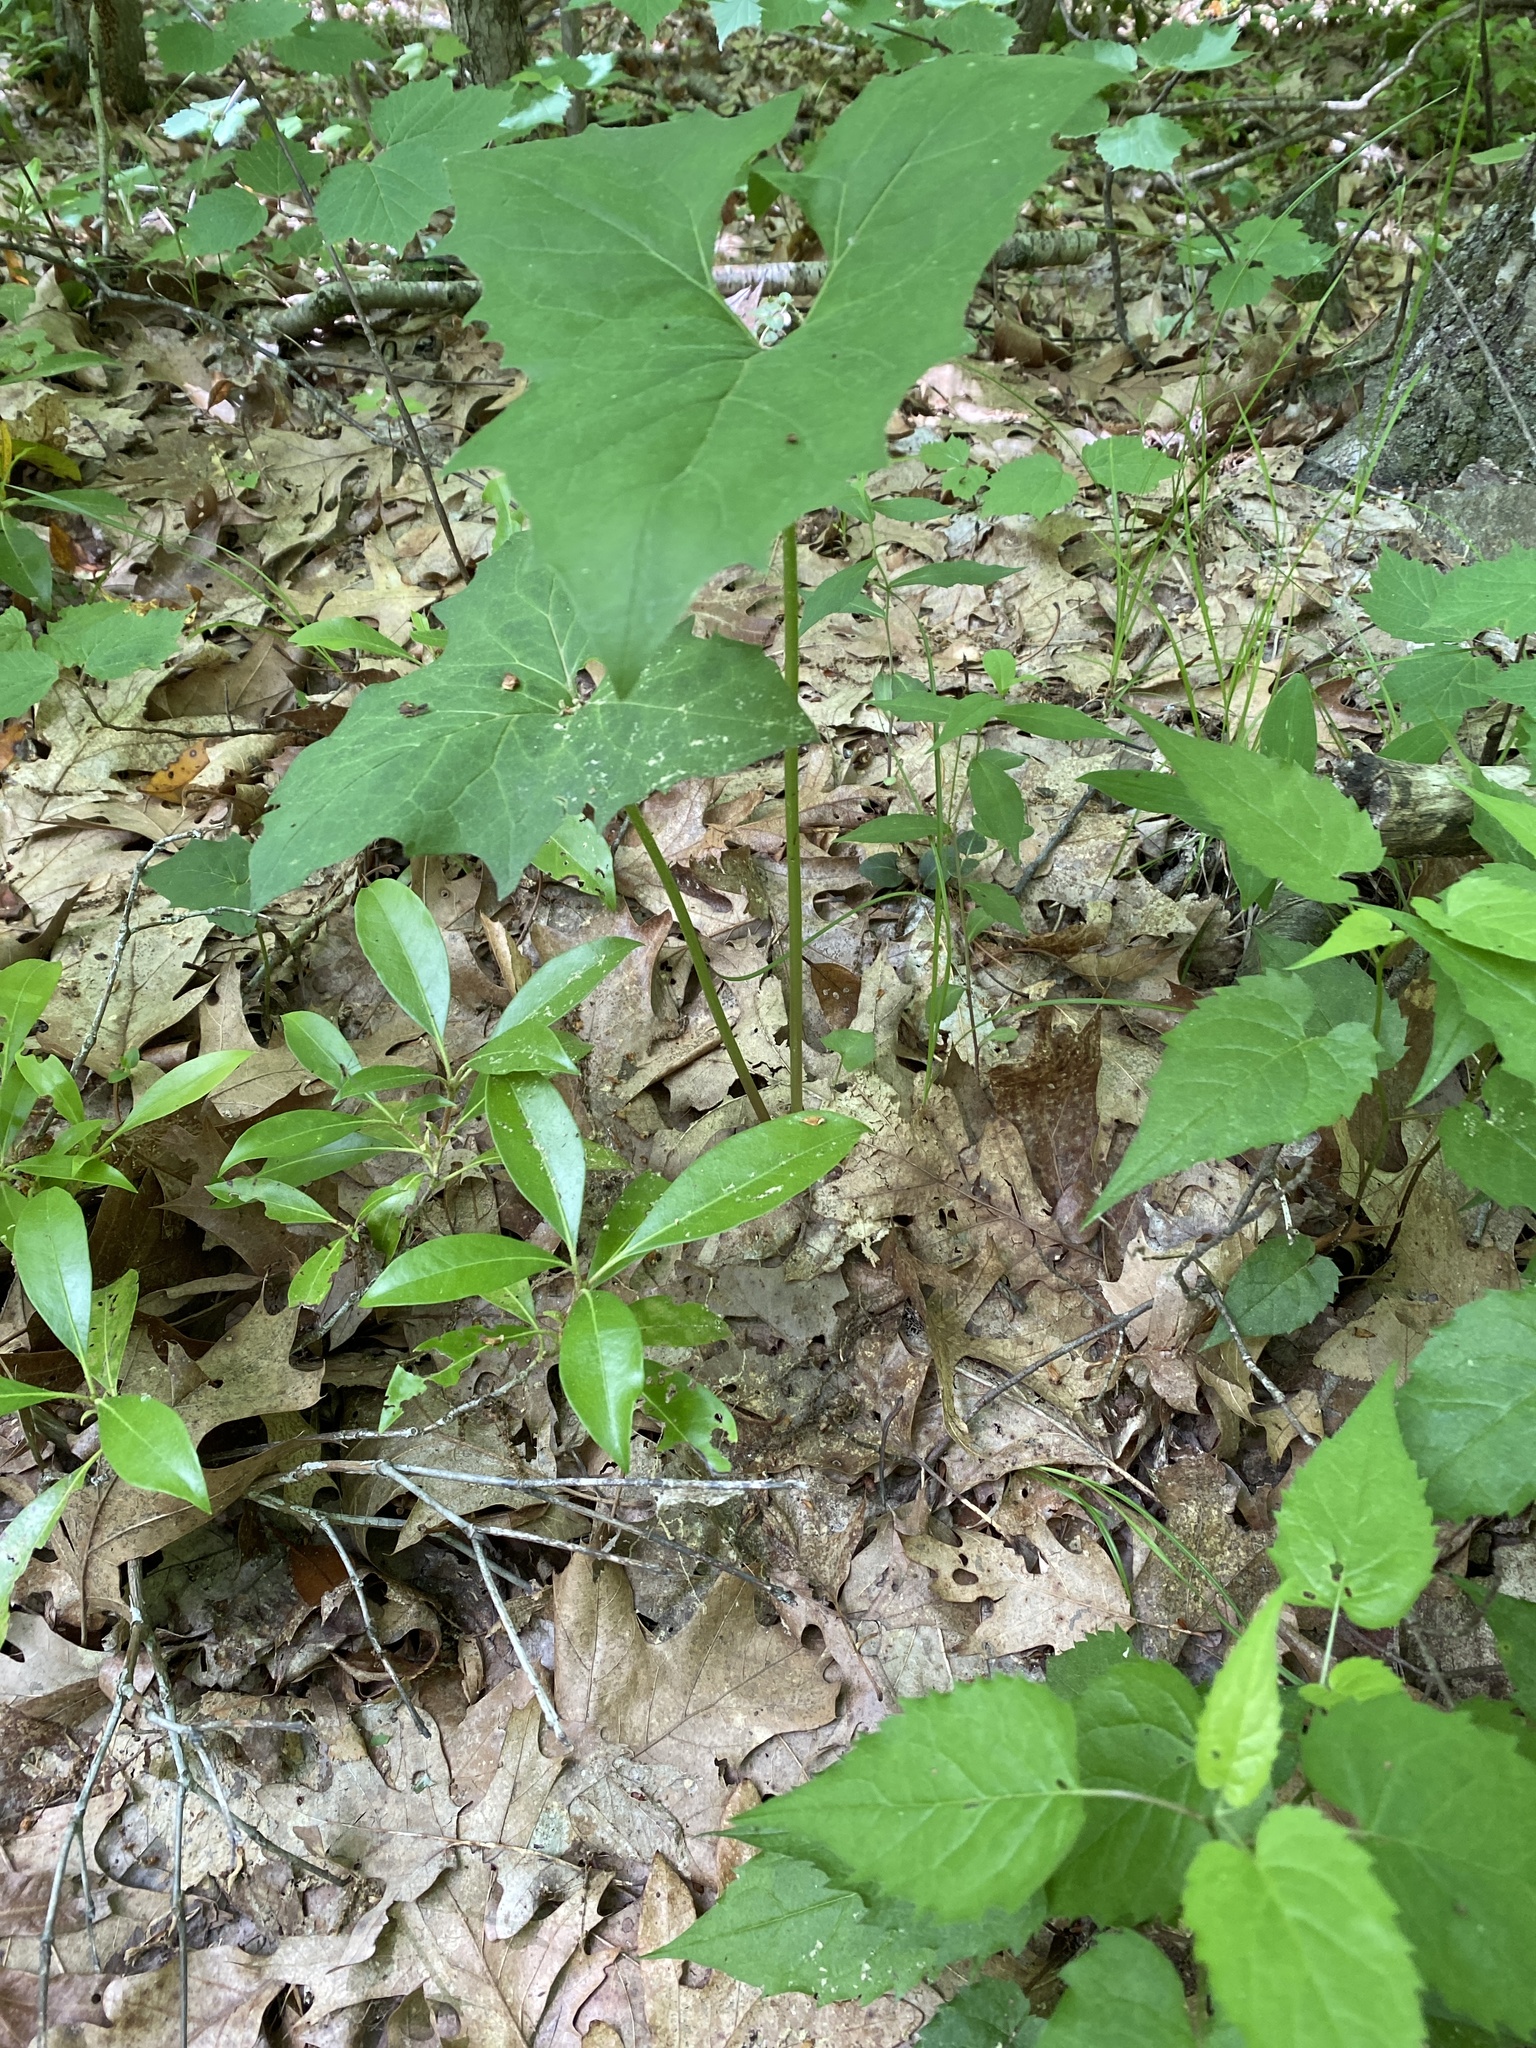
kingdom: Plantae
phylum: Tracheophyta
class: Magnoliopsida
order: Asterales
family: Asteraceae
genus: Nabalus
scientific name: Nabalus
